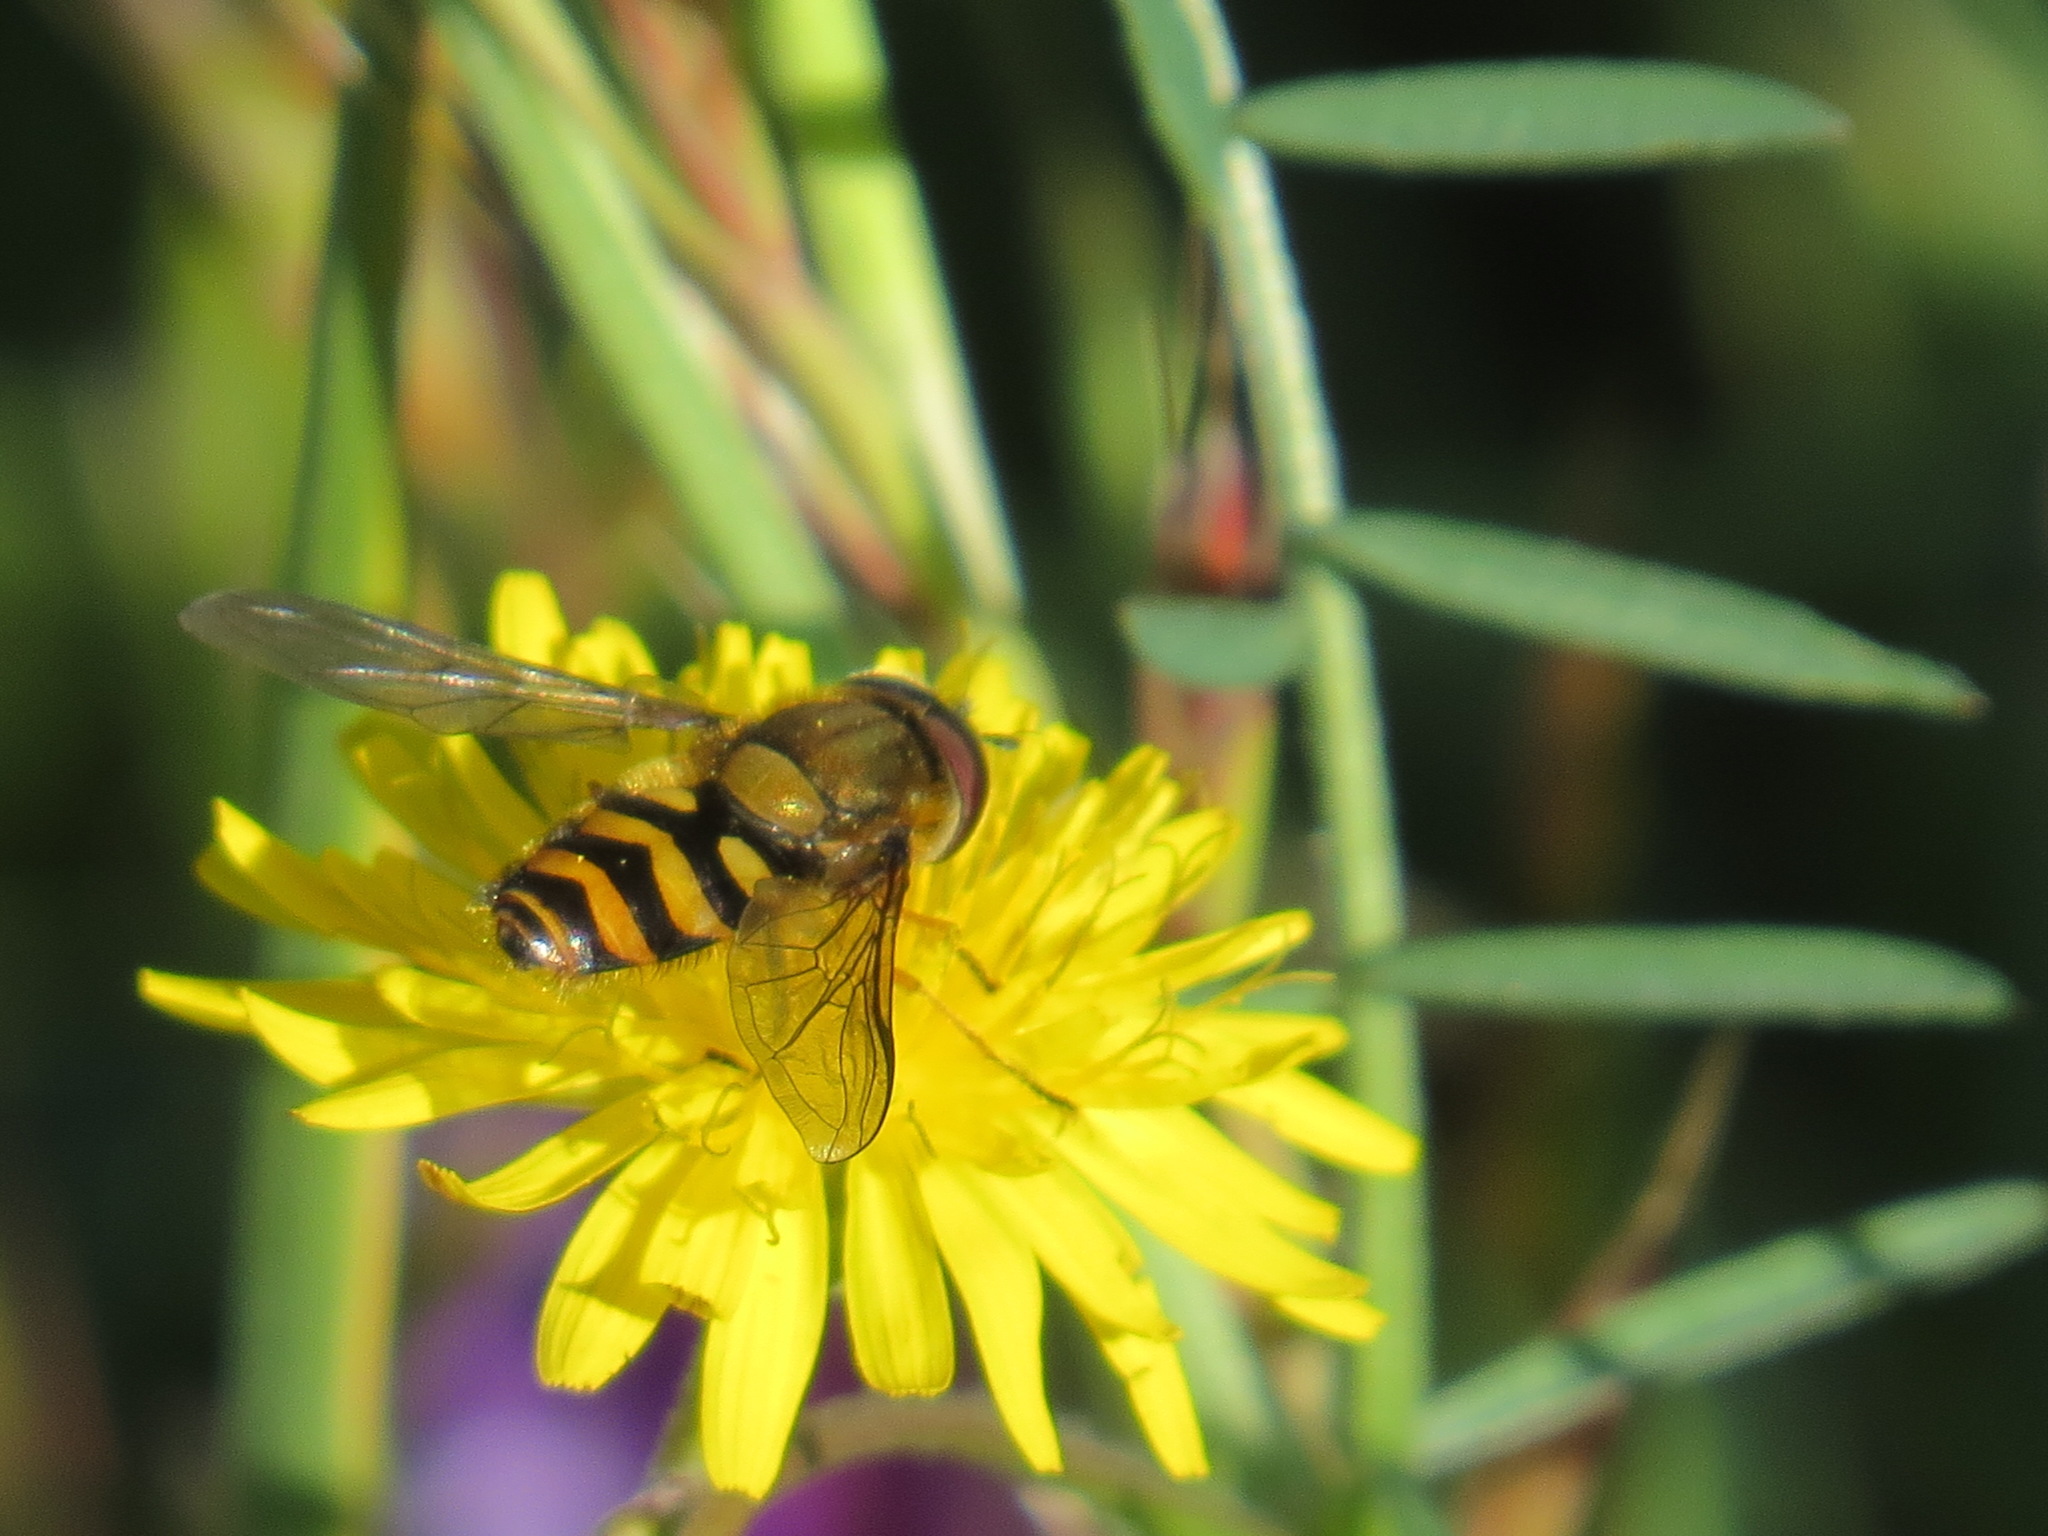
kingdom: Animalia
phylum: Arthropoda
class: Insecta
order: Diptera
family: Syrphidae
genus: Syrphus
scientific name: Syrphus
